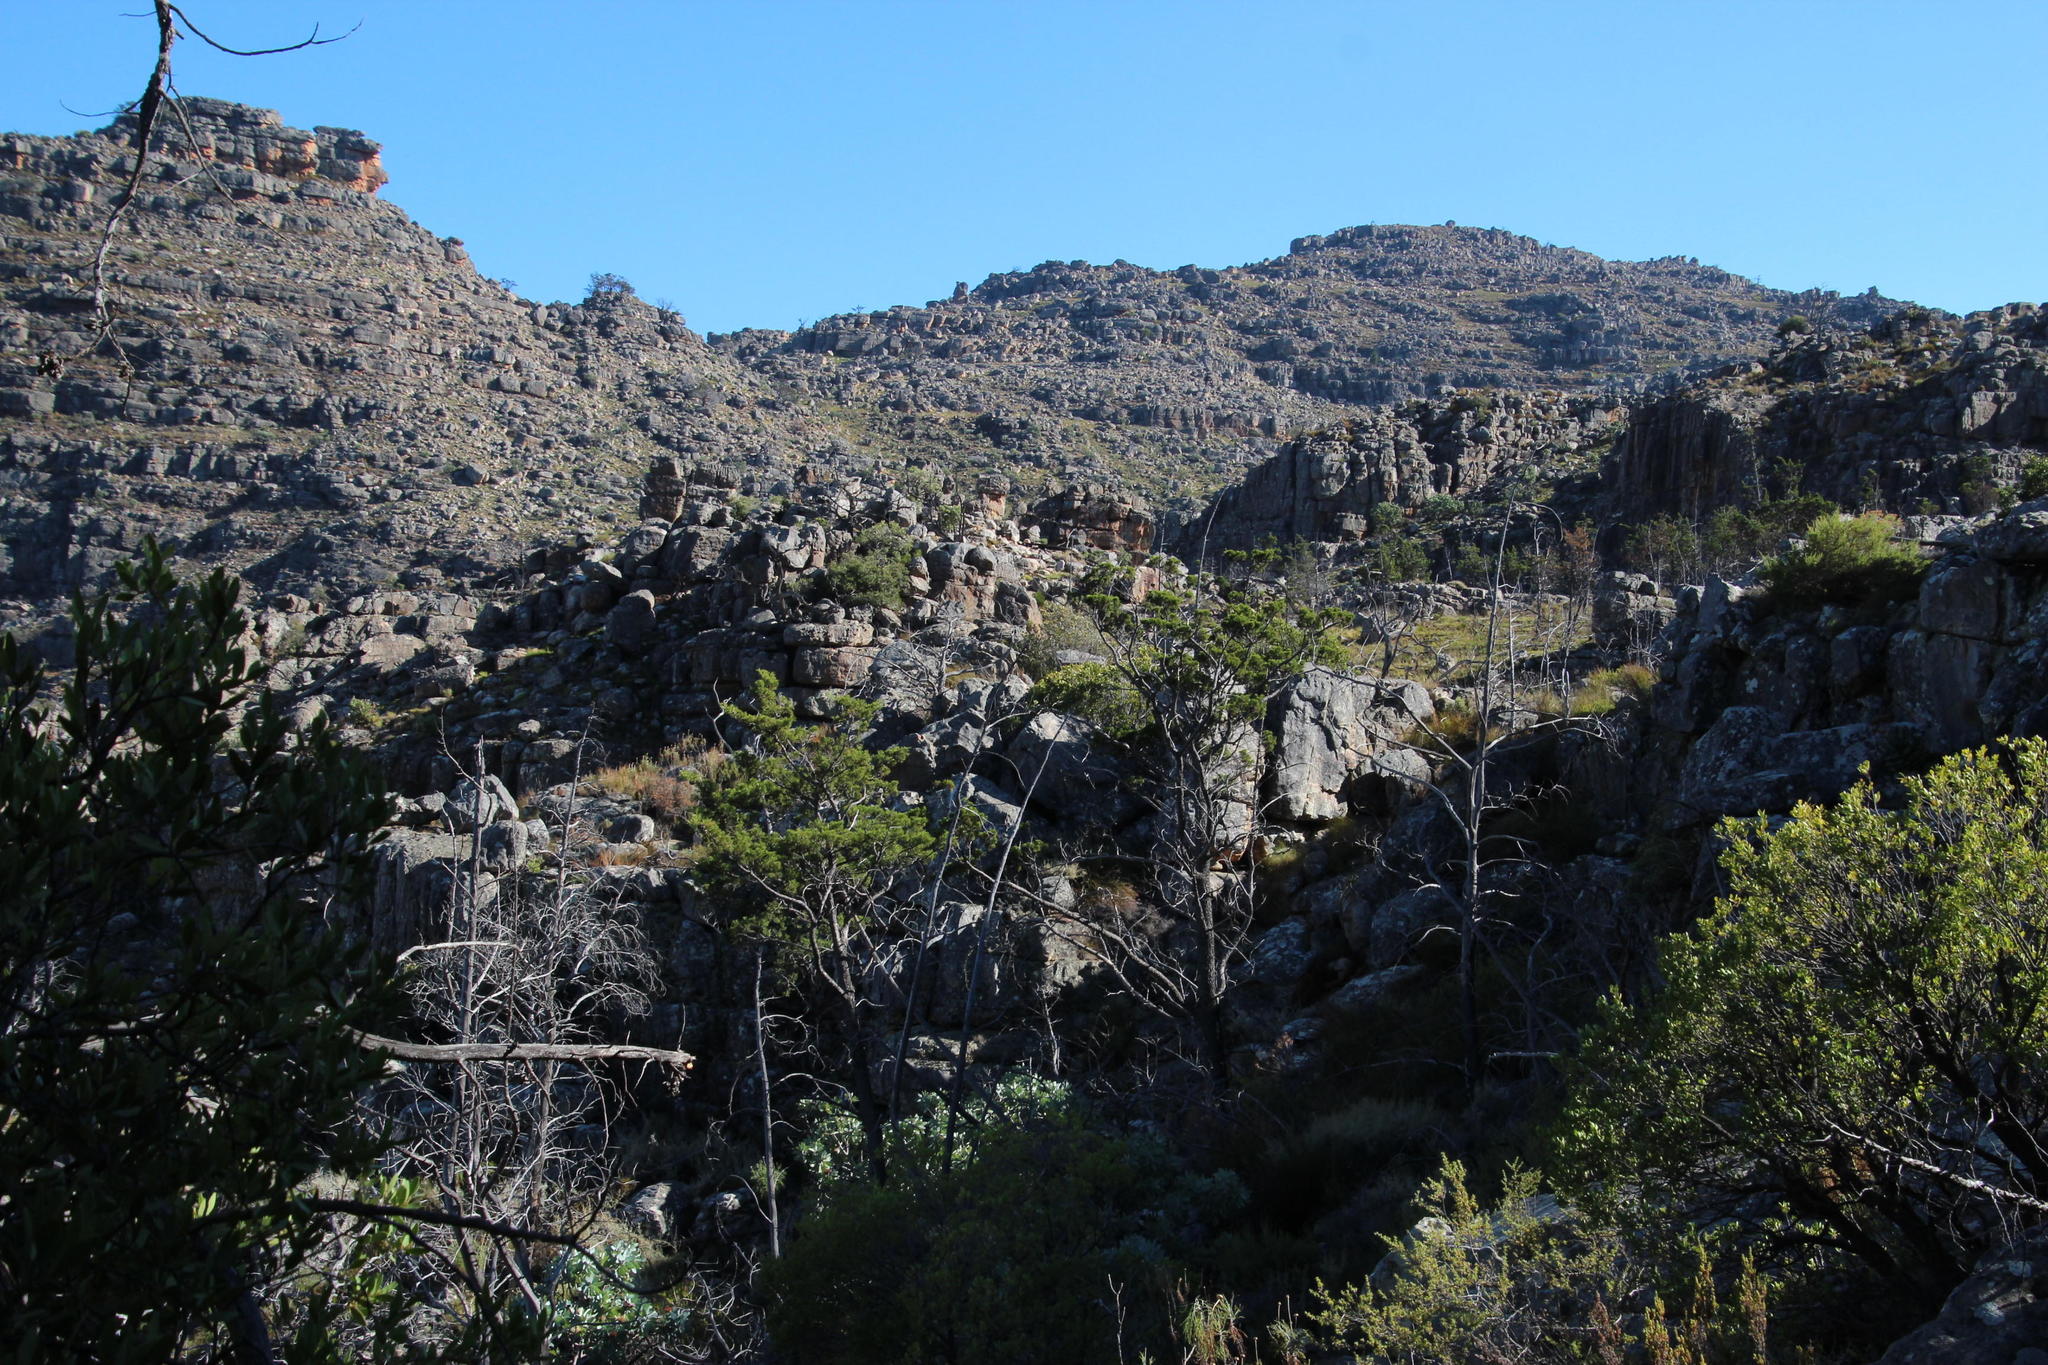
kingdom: Plantae
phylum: Tracheophyta
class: Pinopsida
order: Pinales
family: Cupressaceae
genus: Widdringtonia
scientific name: Widdringtonia nodiflora
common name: Cape cypress
